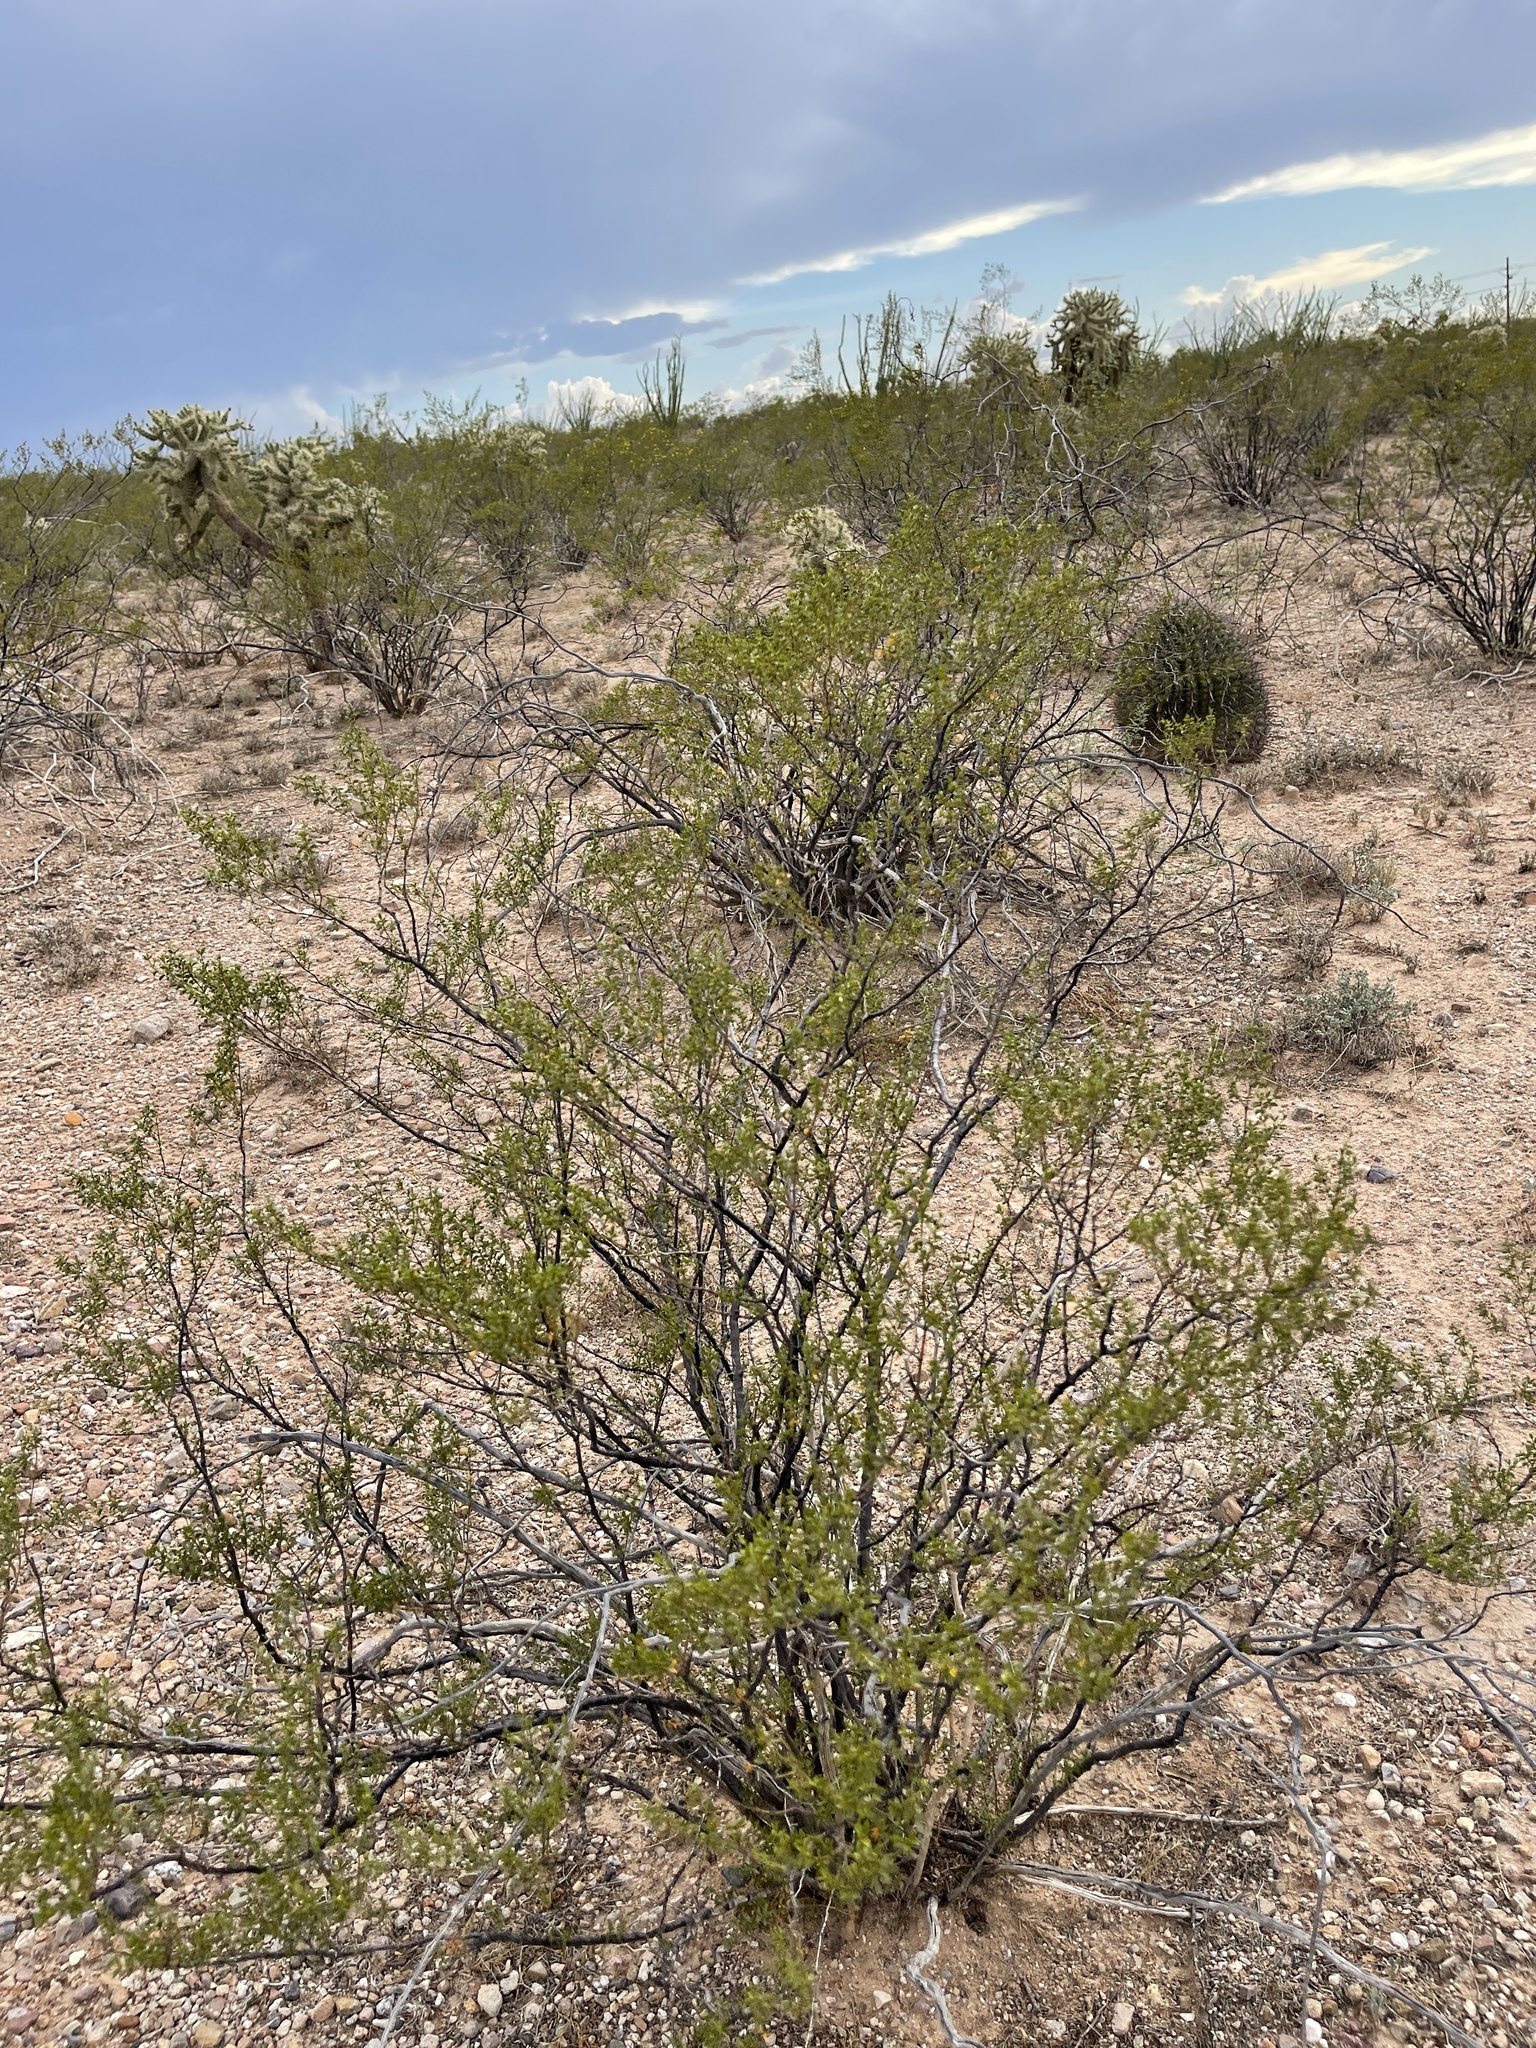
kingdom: Plantae
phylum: Tracheophyta
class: Magnoliopsida
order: Zygophyllales
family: Zygophyllaceae
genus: Larrea
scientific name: Larrea tridentata
